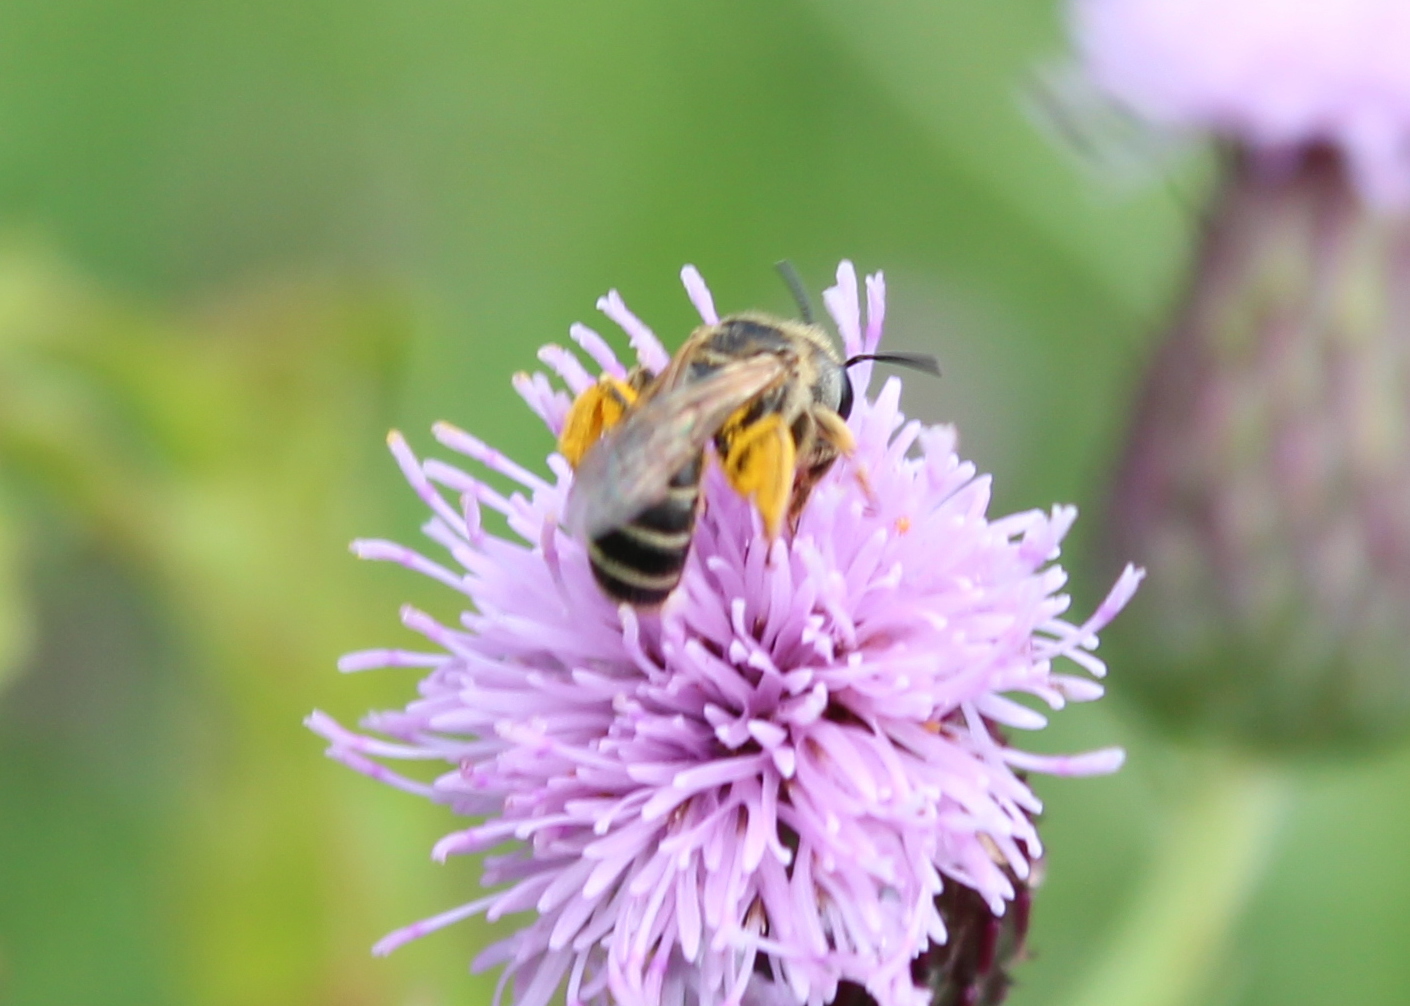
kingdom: Animalia
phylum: Arthropoda
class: Insecta
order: Hymenoptera
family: Halictidae
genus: Halictus
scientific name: Halictus ligatus
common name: Ligated furrow bee
